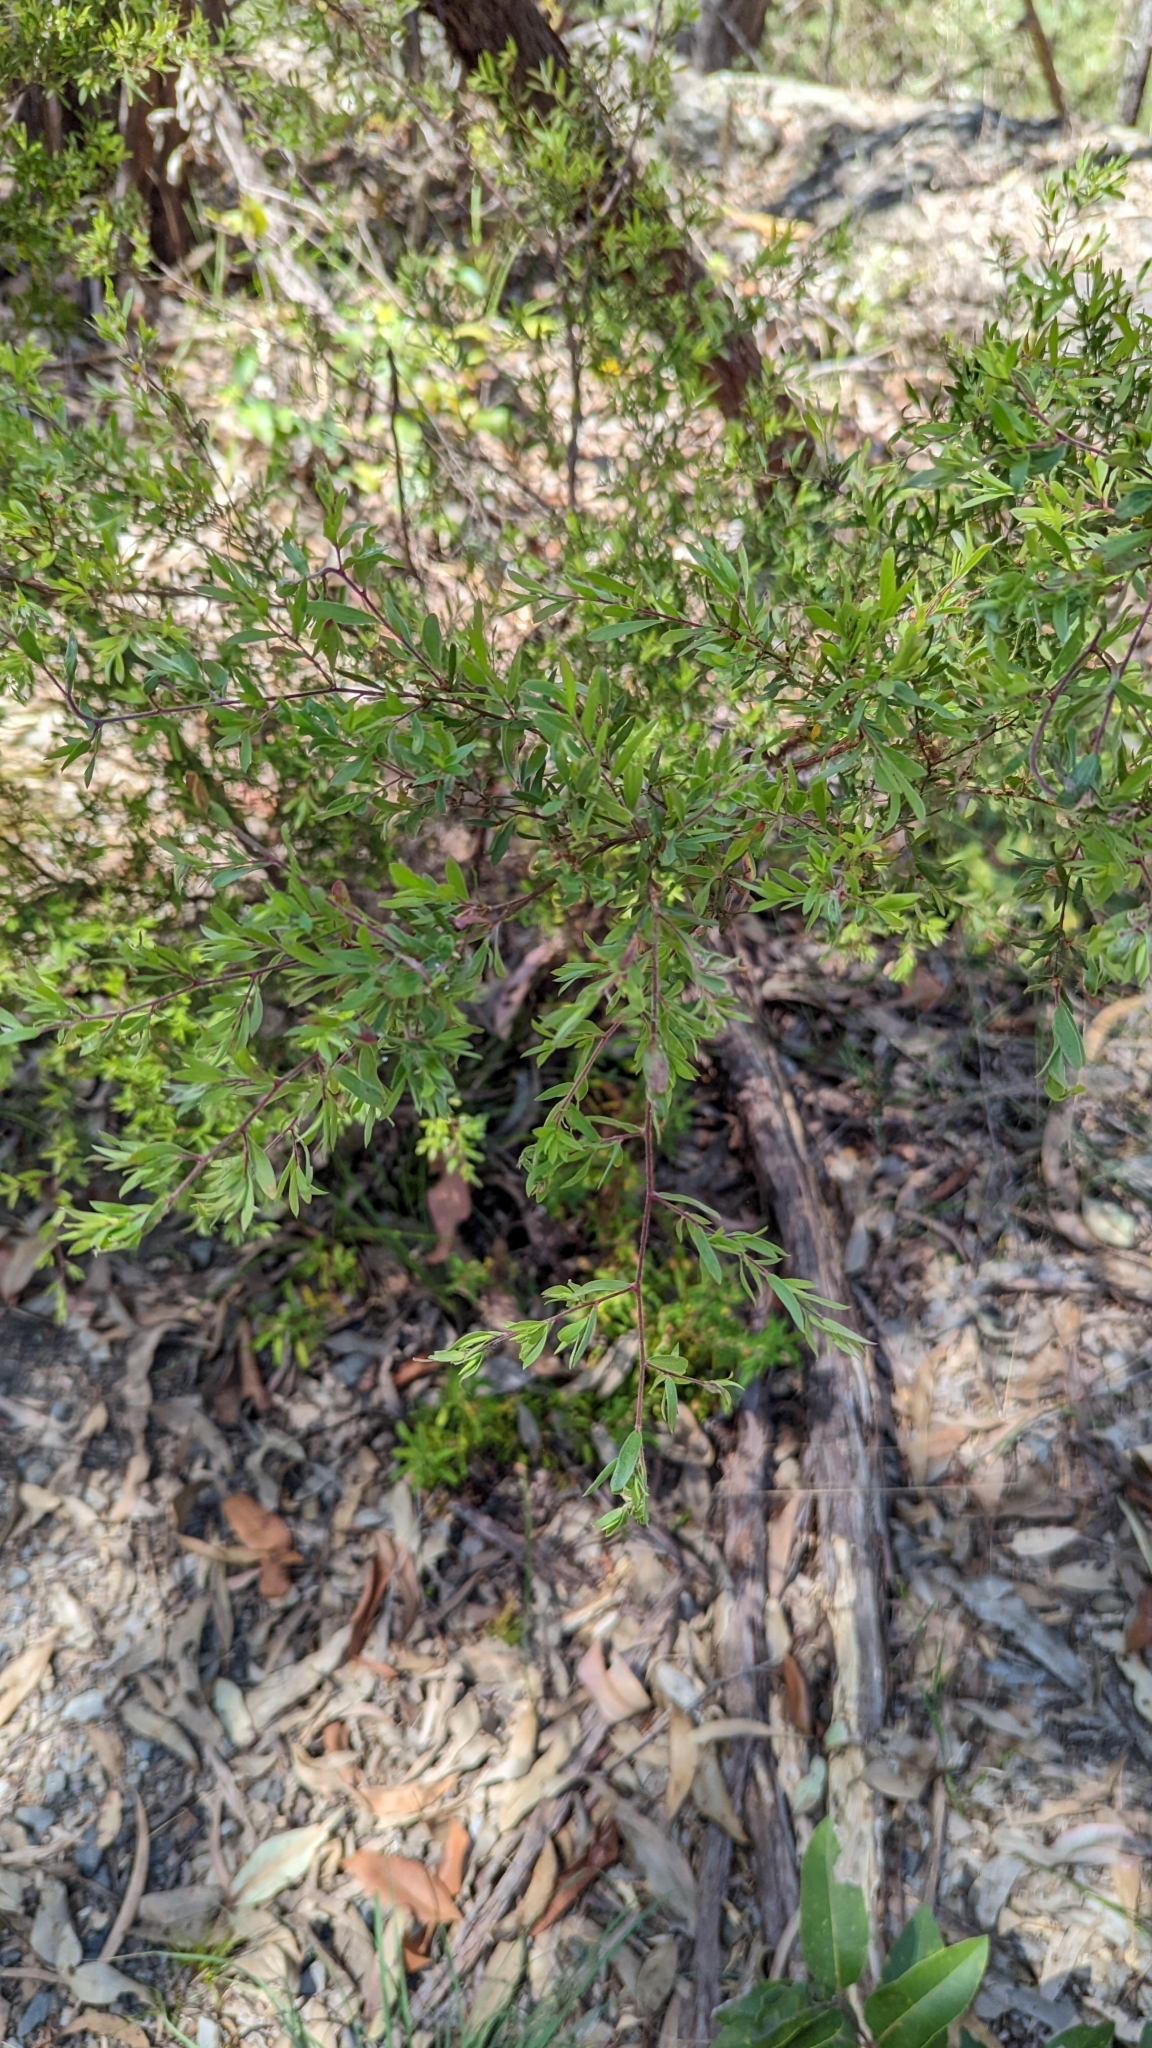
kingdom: Plantae
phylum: Tracheophyta
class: Magnoliopsida
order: Myrtales
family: Myrtaceae
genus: Leptospermum
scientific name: Leptospermum trinervium
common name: Flaky-barked tea-tree
